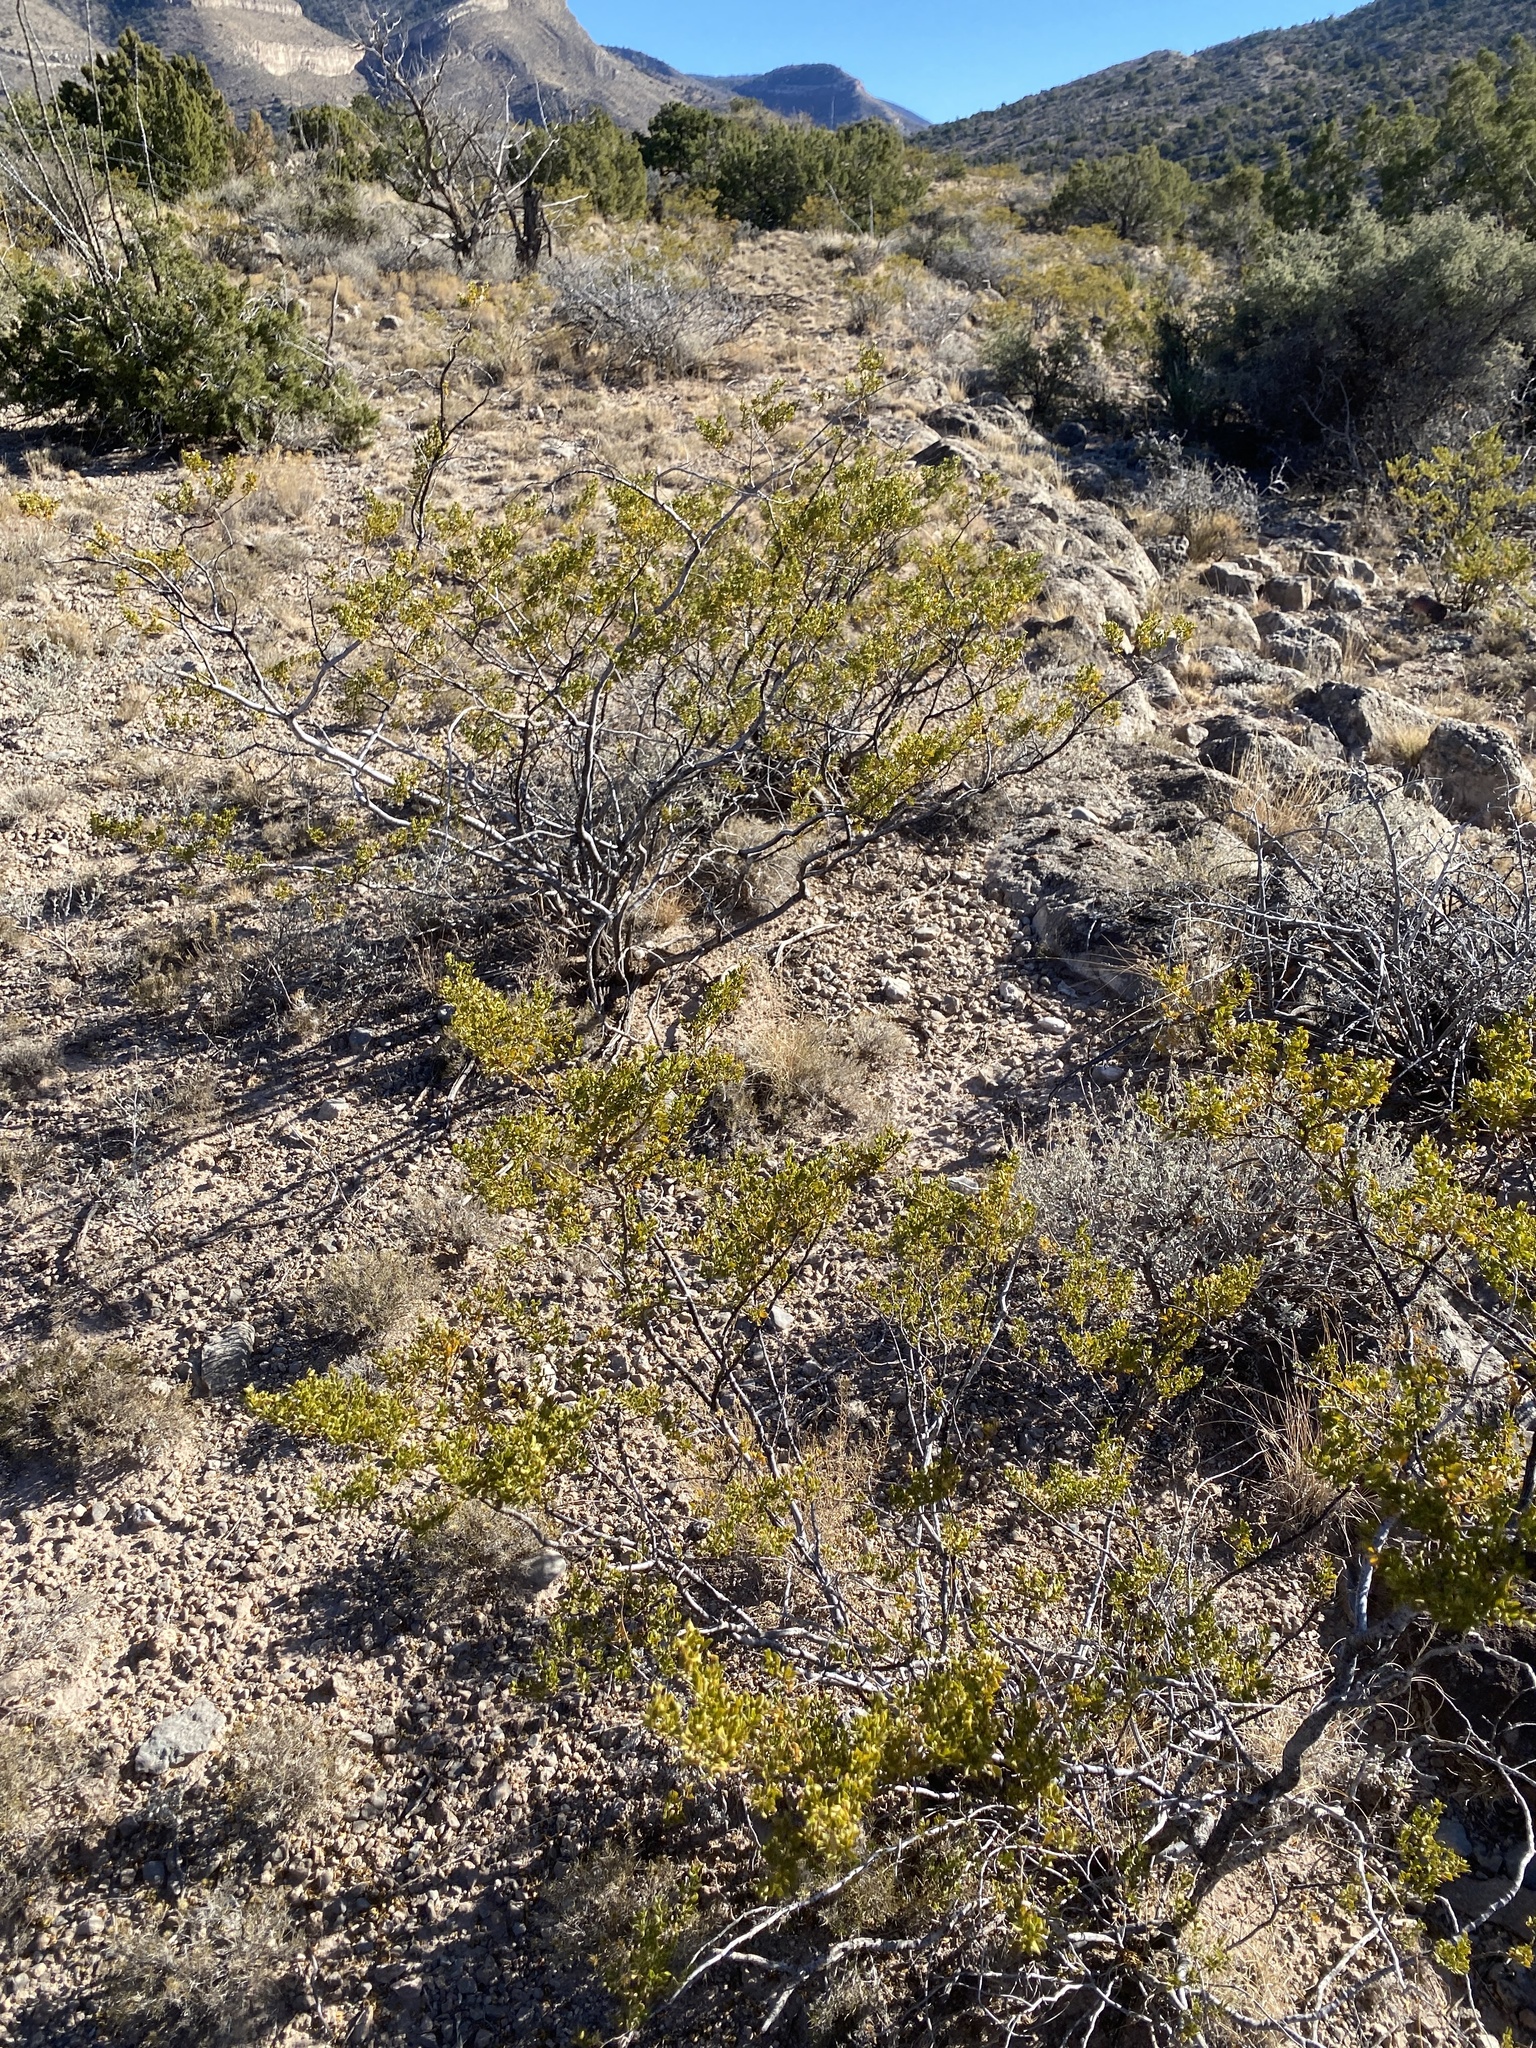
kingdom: Plantae
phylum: Tracheophyta
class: Magnoliopsida
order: Zygophyllales
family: Zygophyllaceae
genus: Larrea
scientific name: Larrea tridentata
